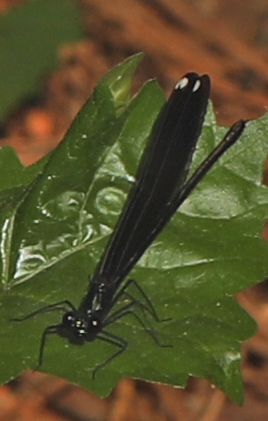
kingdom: Animalia
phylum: Arthropoda
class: Insecta
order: Odonata
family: Calopterygidae
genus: Calopteryx
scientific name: Calopteryx maculata
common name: Ebony jewelwing
